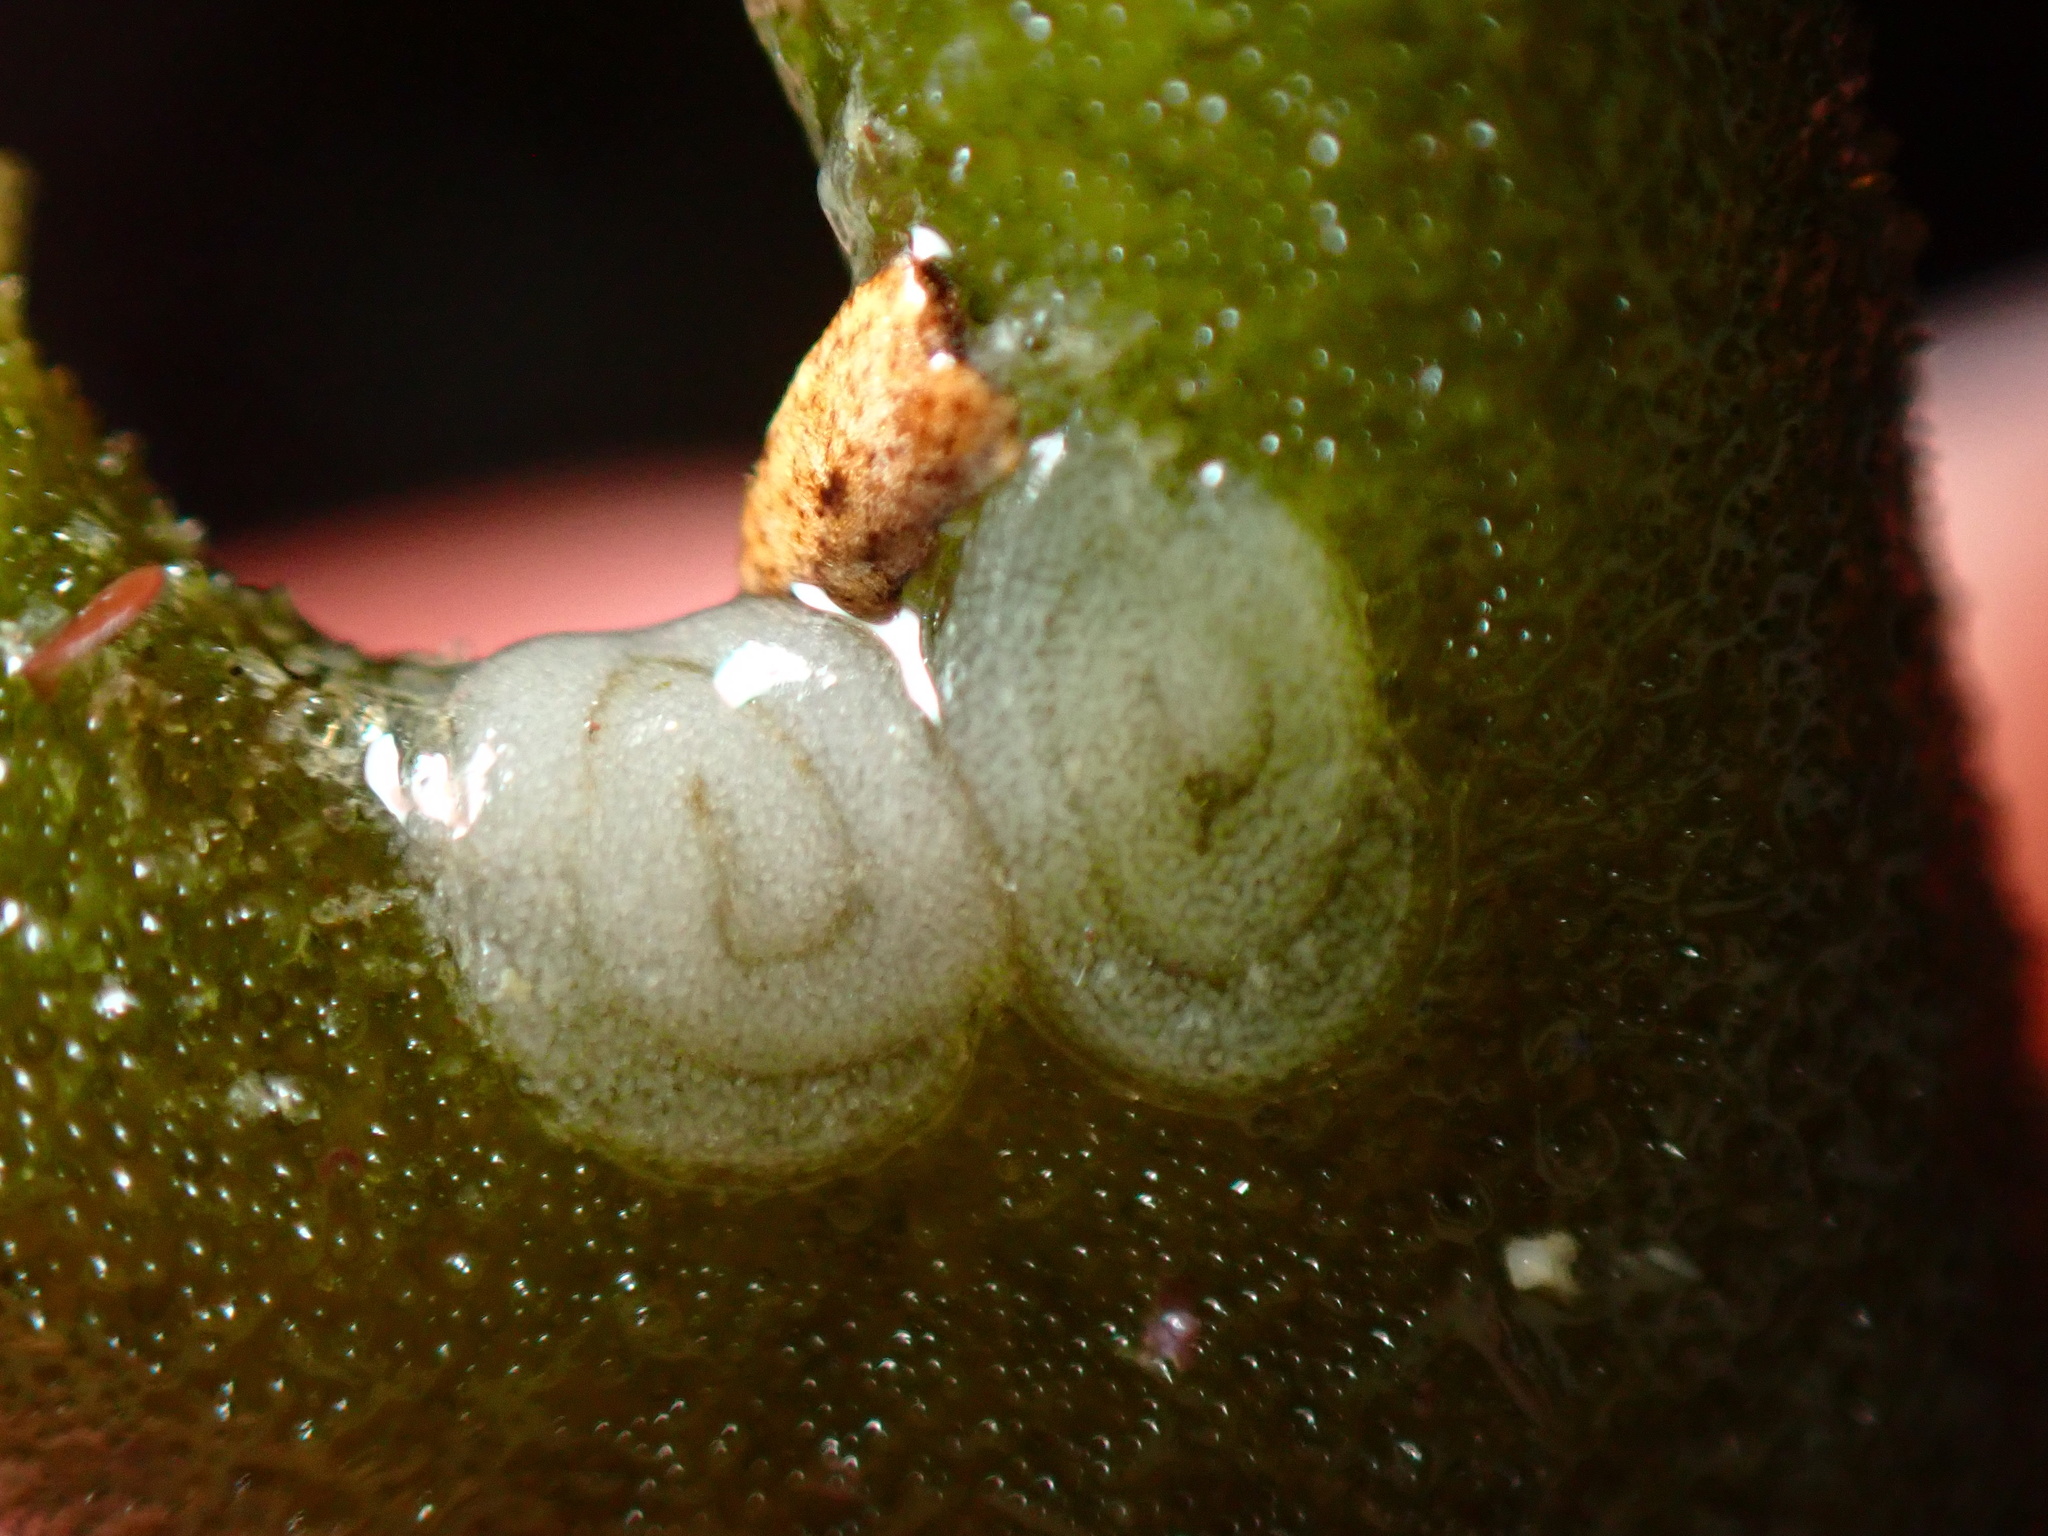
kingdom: Animalia
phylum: Mollusca
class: Gastropoda
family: Plakobranchidae
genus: Elysia
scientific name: Elysia hedgpethi
